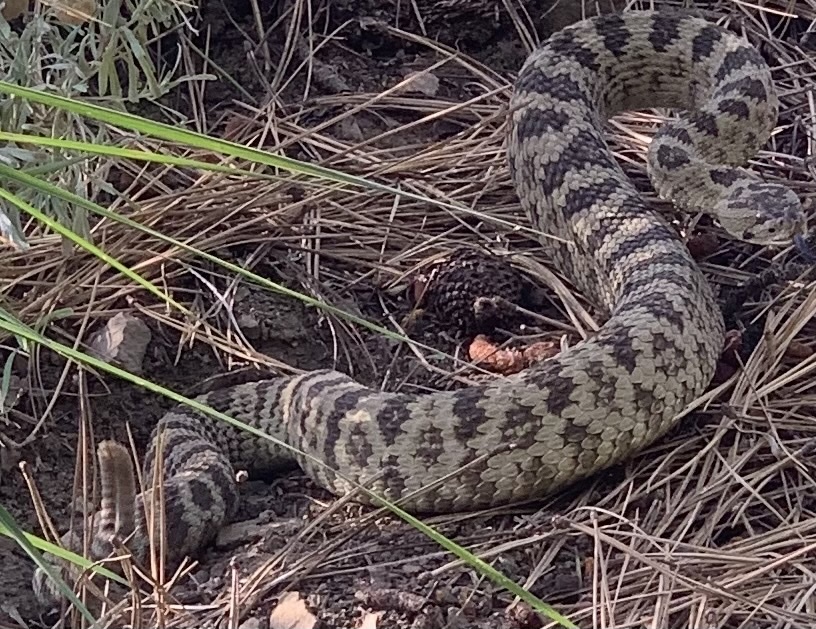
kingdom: Animalia
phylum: Chordata
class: Squamata
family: Viperidae
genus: Crotalus
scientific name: Crotalus oreganus
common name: Abyssus
